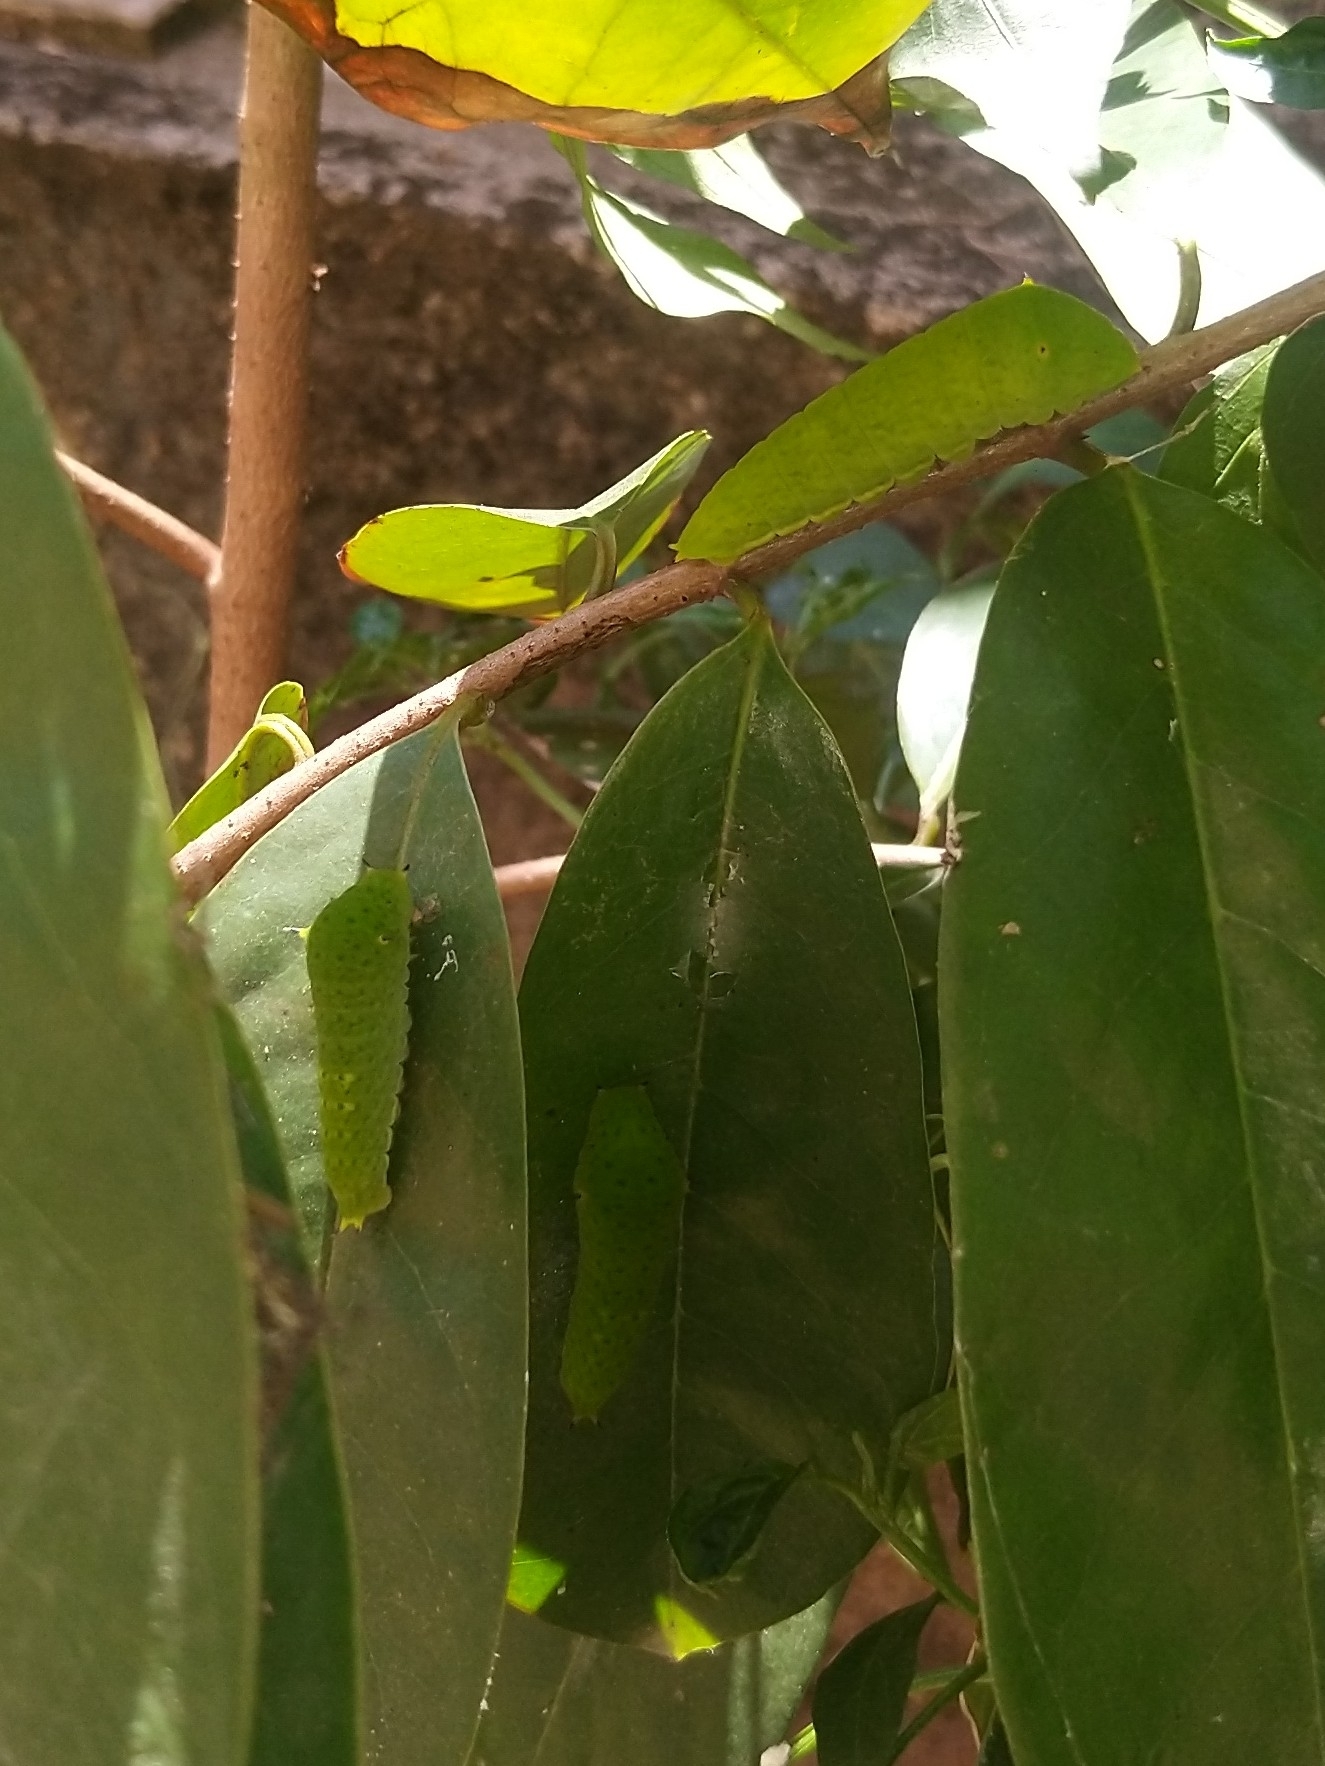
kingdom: Animalia
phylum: Arthropoda
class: Insecta
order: Lepidoptera
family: Papilionidae
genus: Graphium
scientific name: Graphium agamemnon
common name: Tailed jay
